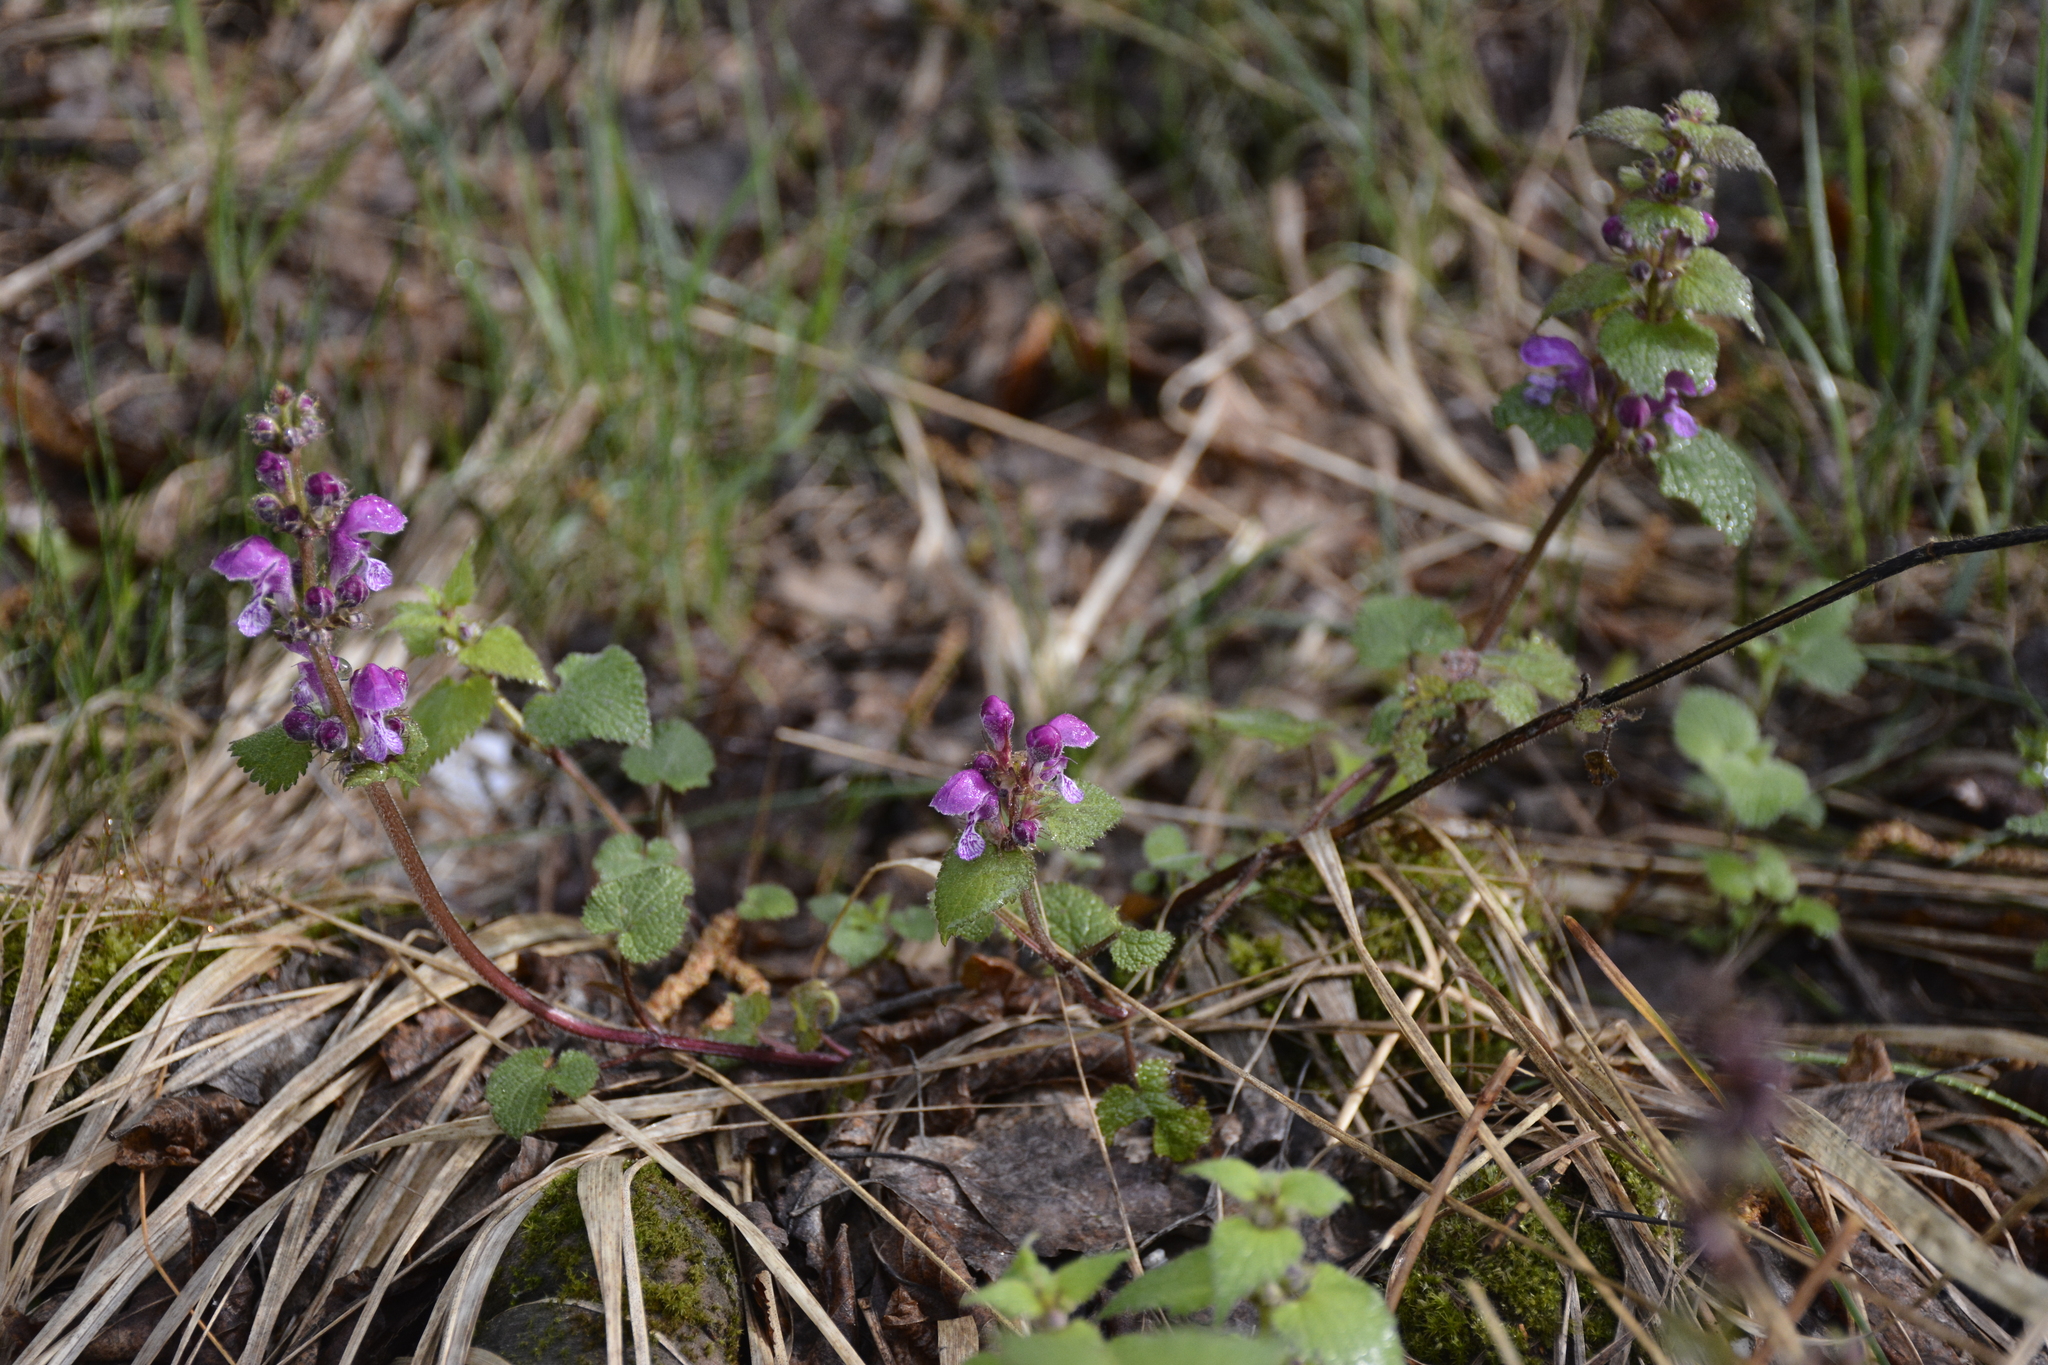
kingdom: Plantae
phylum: Tracheophyta
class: Magnoliopsida
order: Lamiales
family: Lamiaceae
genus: Lamium
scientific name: Lamium maculatum
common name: Spotted dead-nettle
